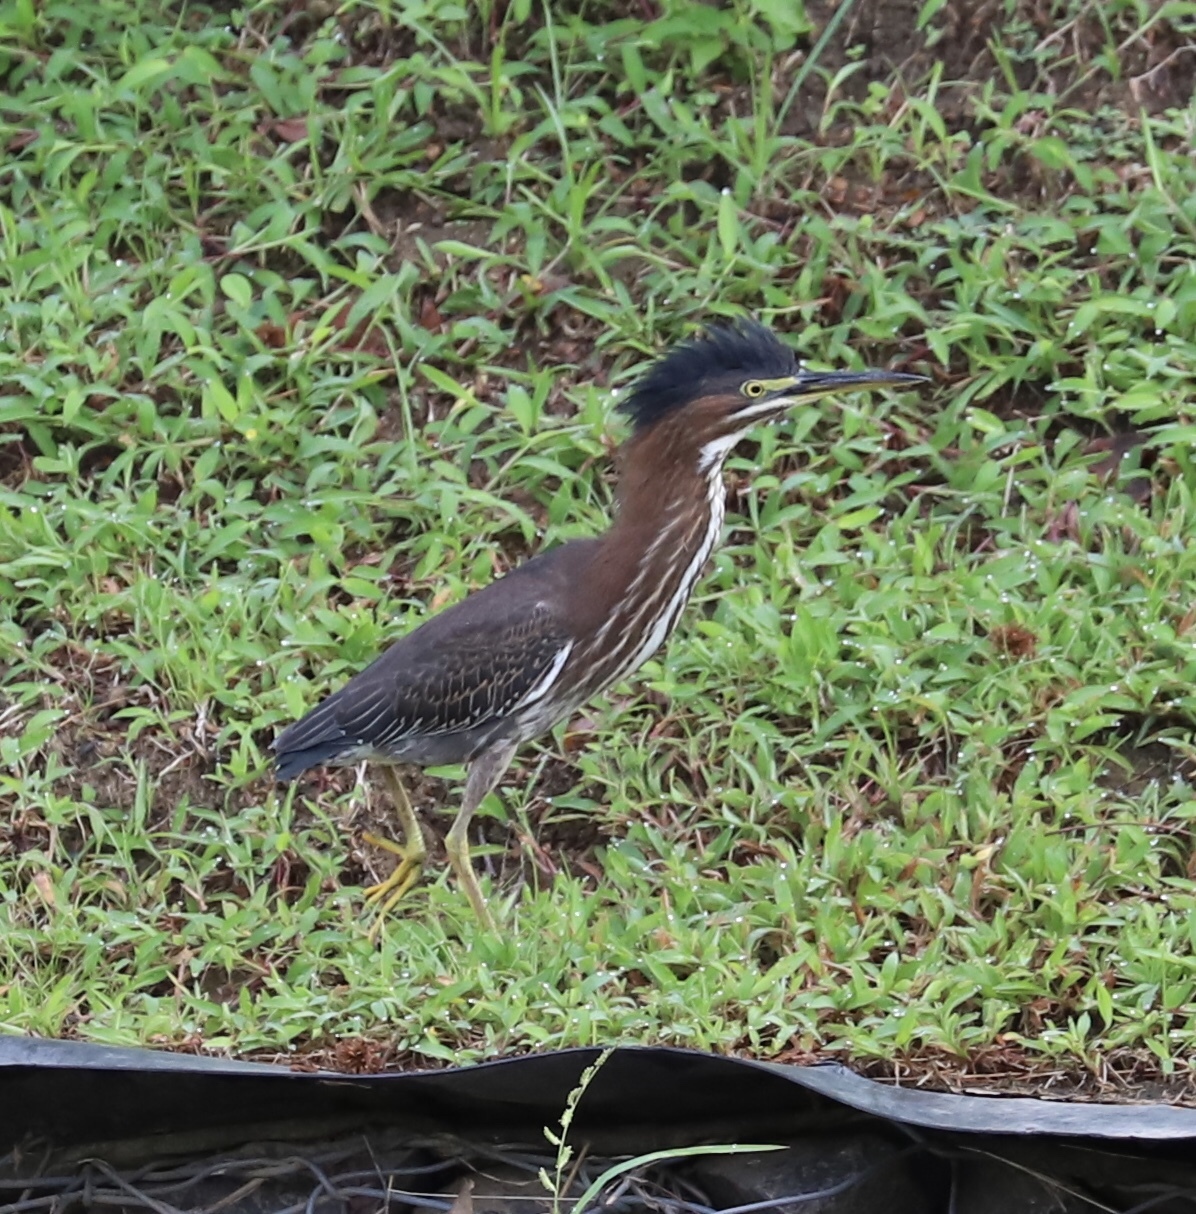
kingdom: Animalia
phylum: Chordata
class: Aves
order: Pelecaniformes
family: Ardeidae
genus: Butorides
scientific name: Butorides virescens
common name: Green heron
